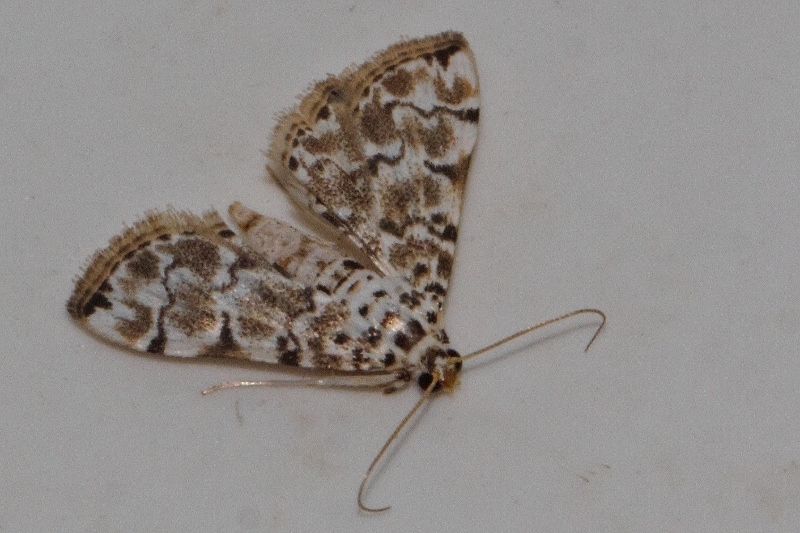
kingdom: Animalia
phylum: Arthropoda
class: Insecta
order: Lepidoptera
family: Crambidae
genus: Metoeca
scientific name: Metoeca foedalis
